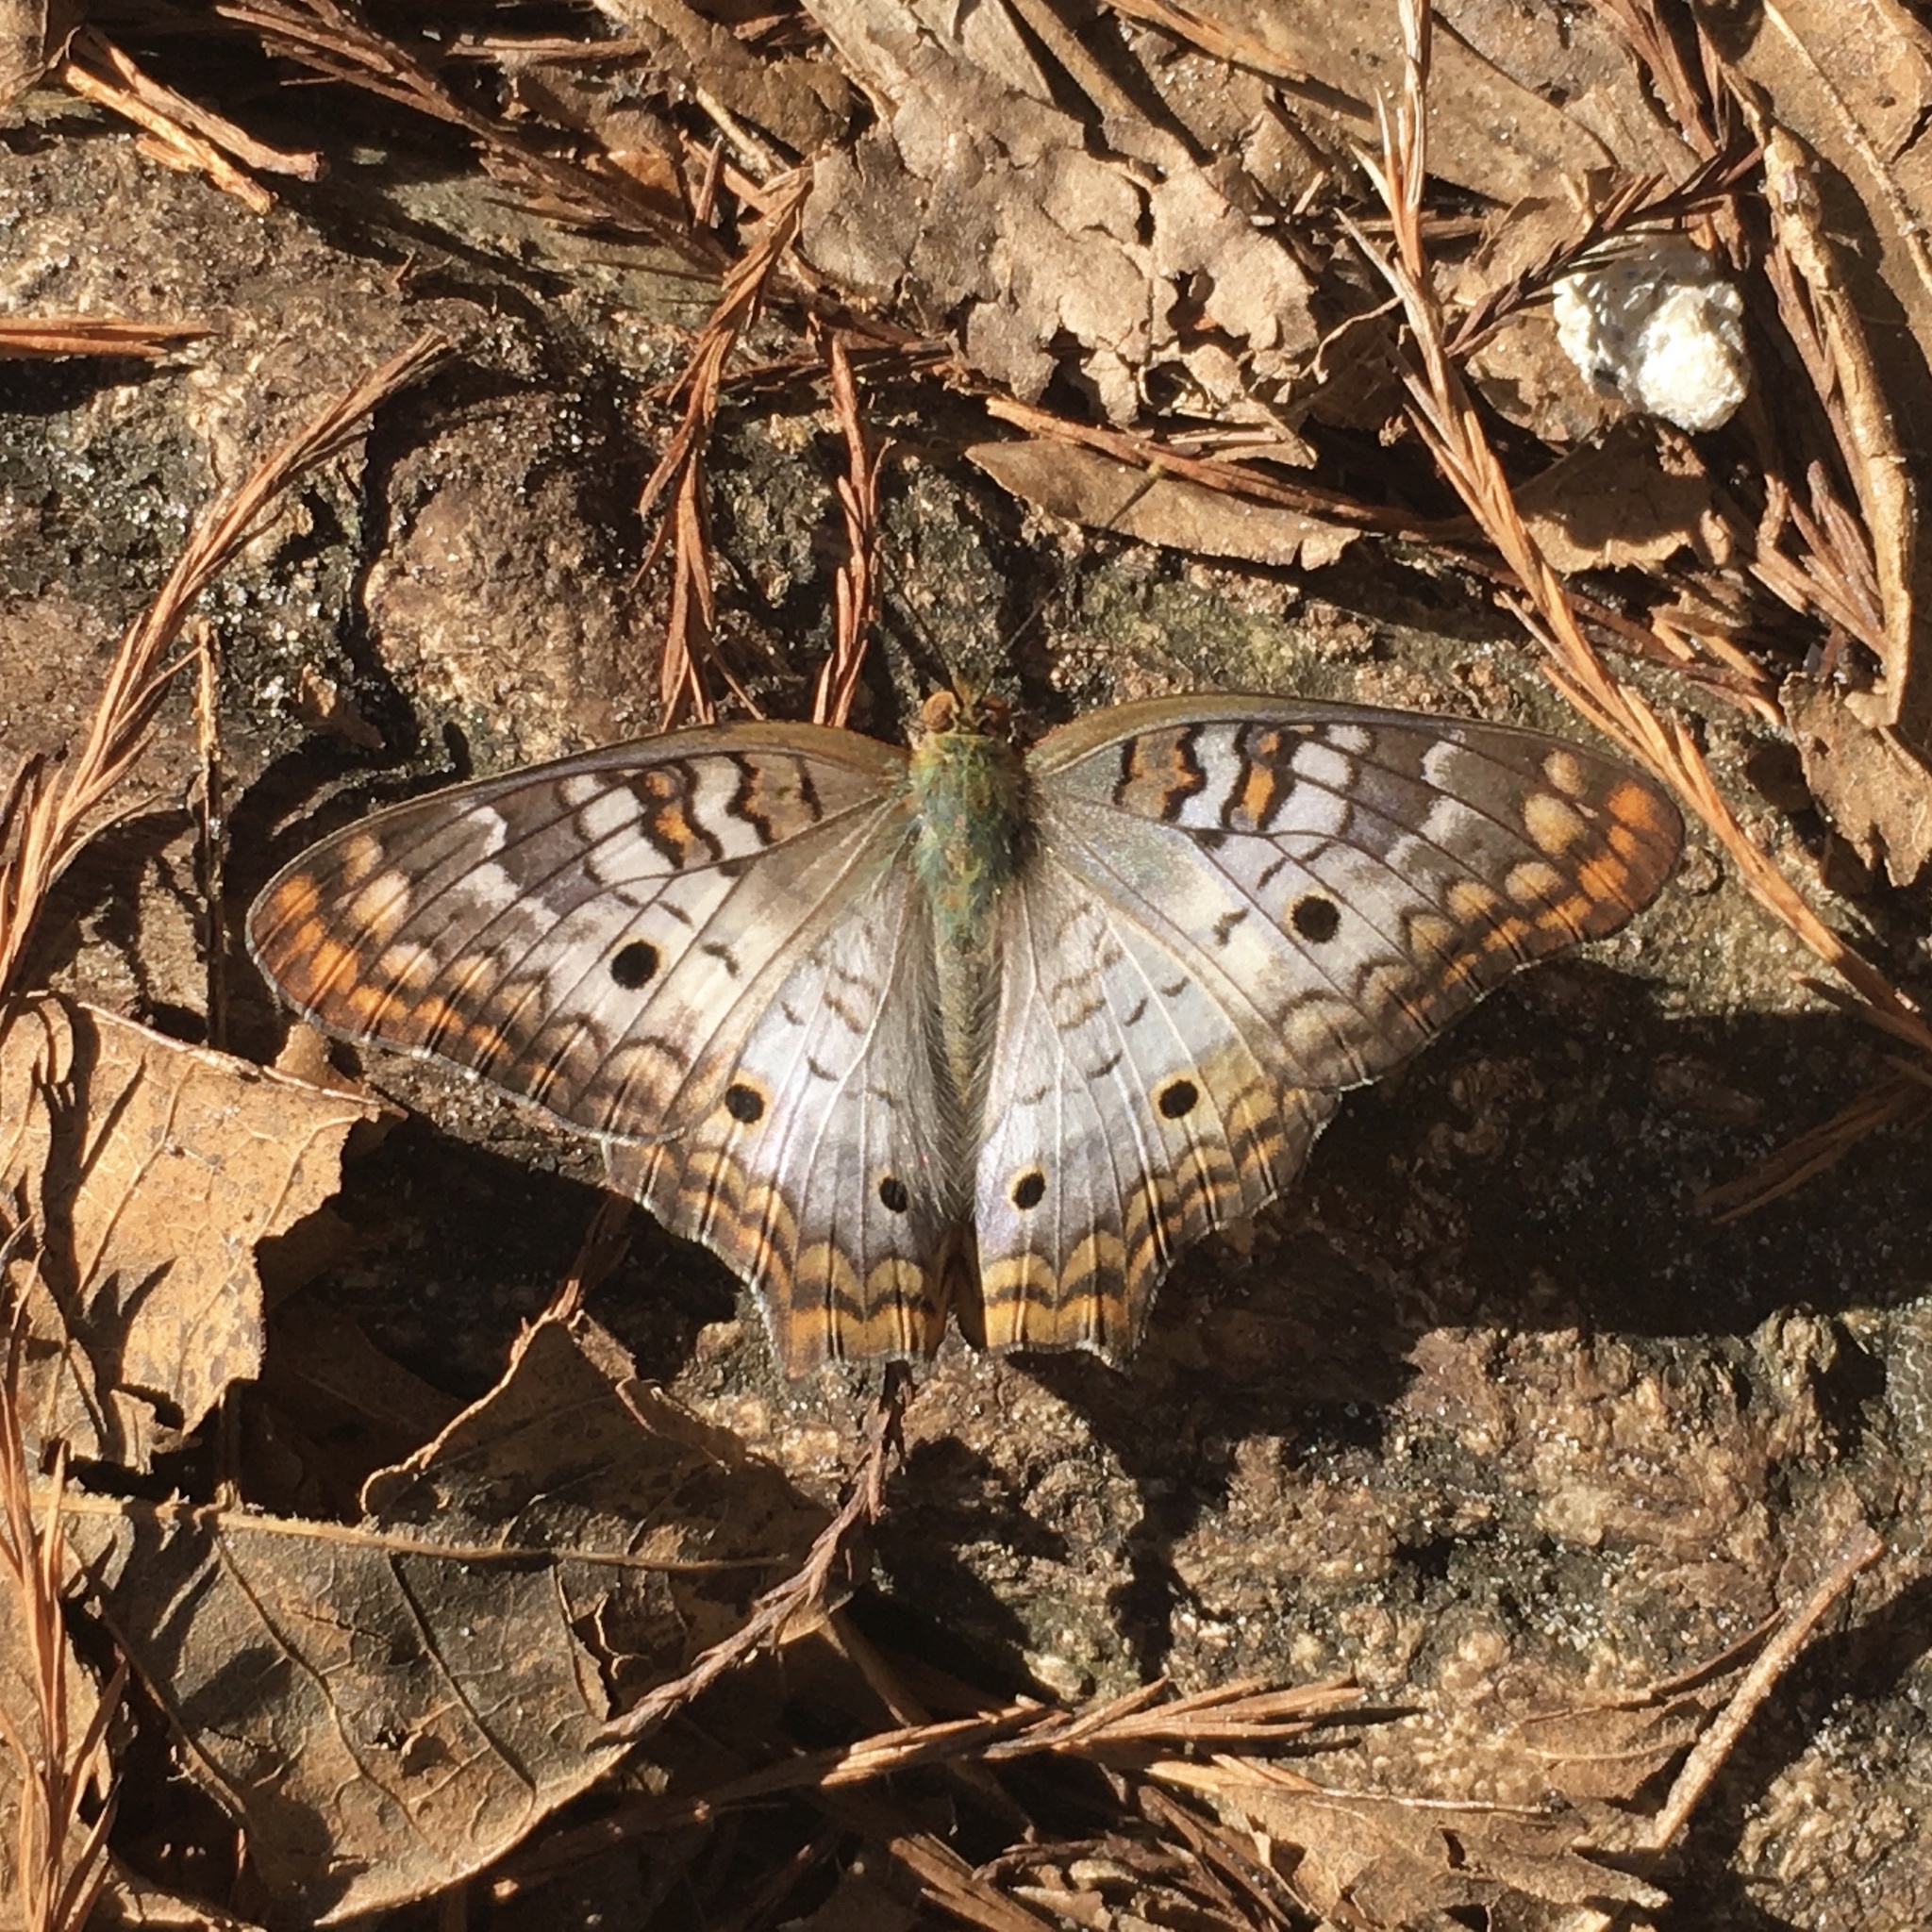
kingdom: Animalia
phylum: Arthropoda
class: Insecta
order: Lepidoptera
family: Nymphalidae
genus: Anartia
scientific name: Anartia jatrophae
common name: White peacock
